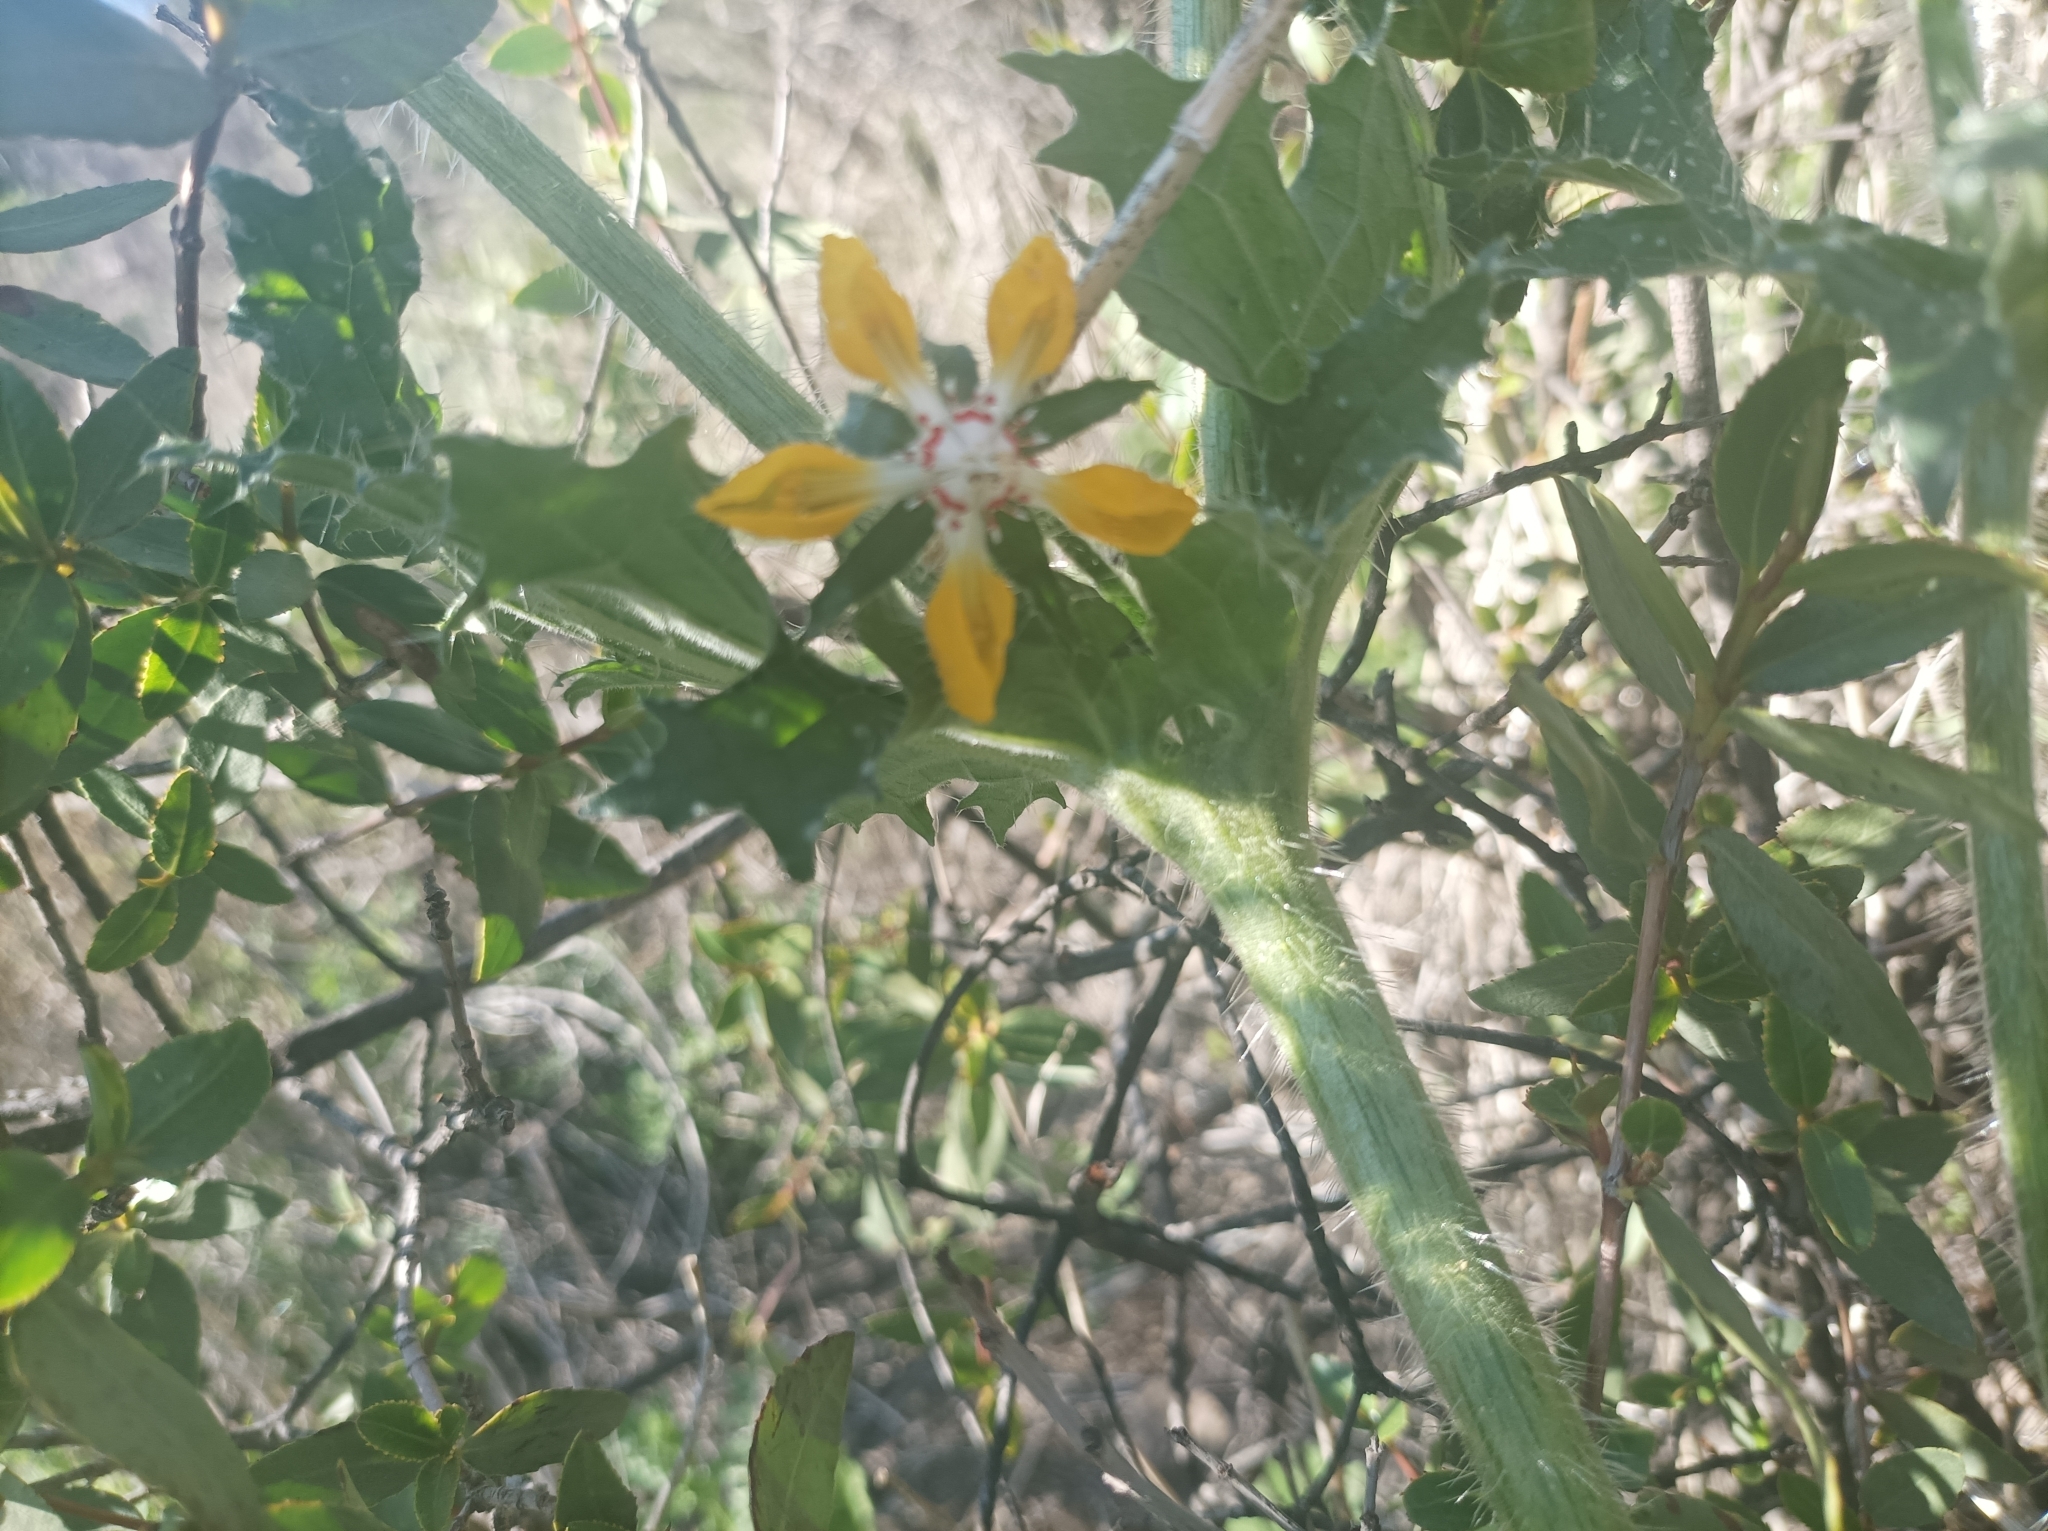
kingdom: Plantae
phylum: Tracheophyta
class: Magnoliopsida
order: Cornales
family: Loasaceae
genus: Loasa
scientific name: Loasa placei
